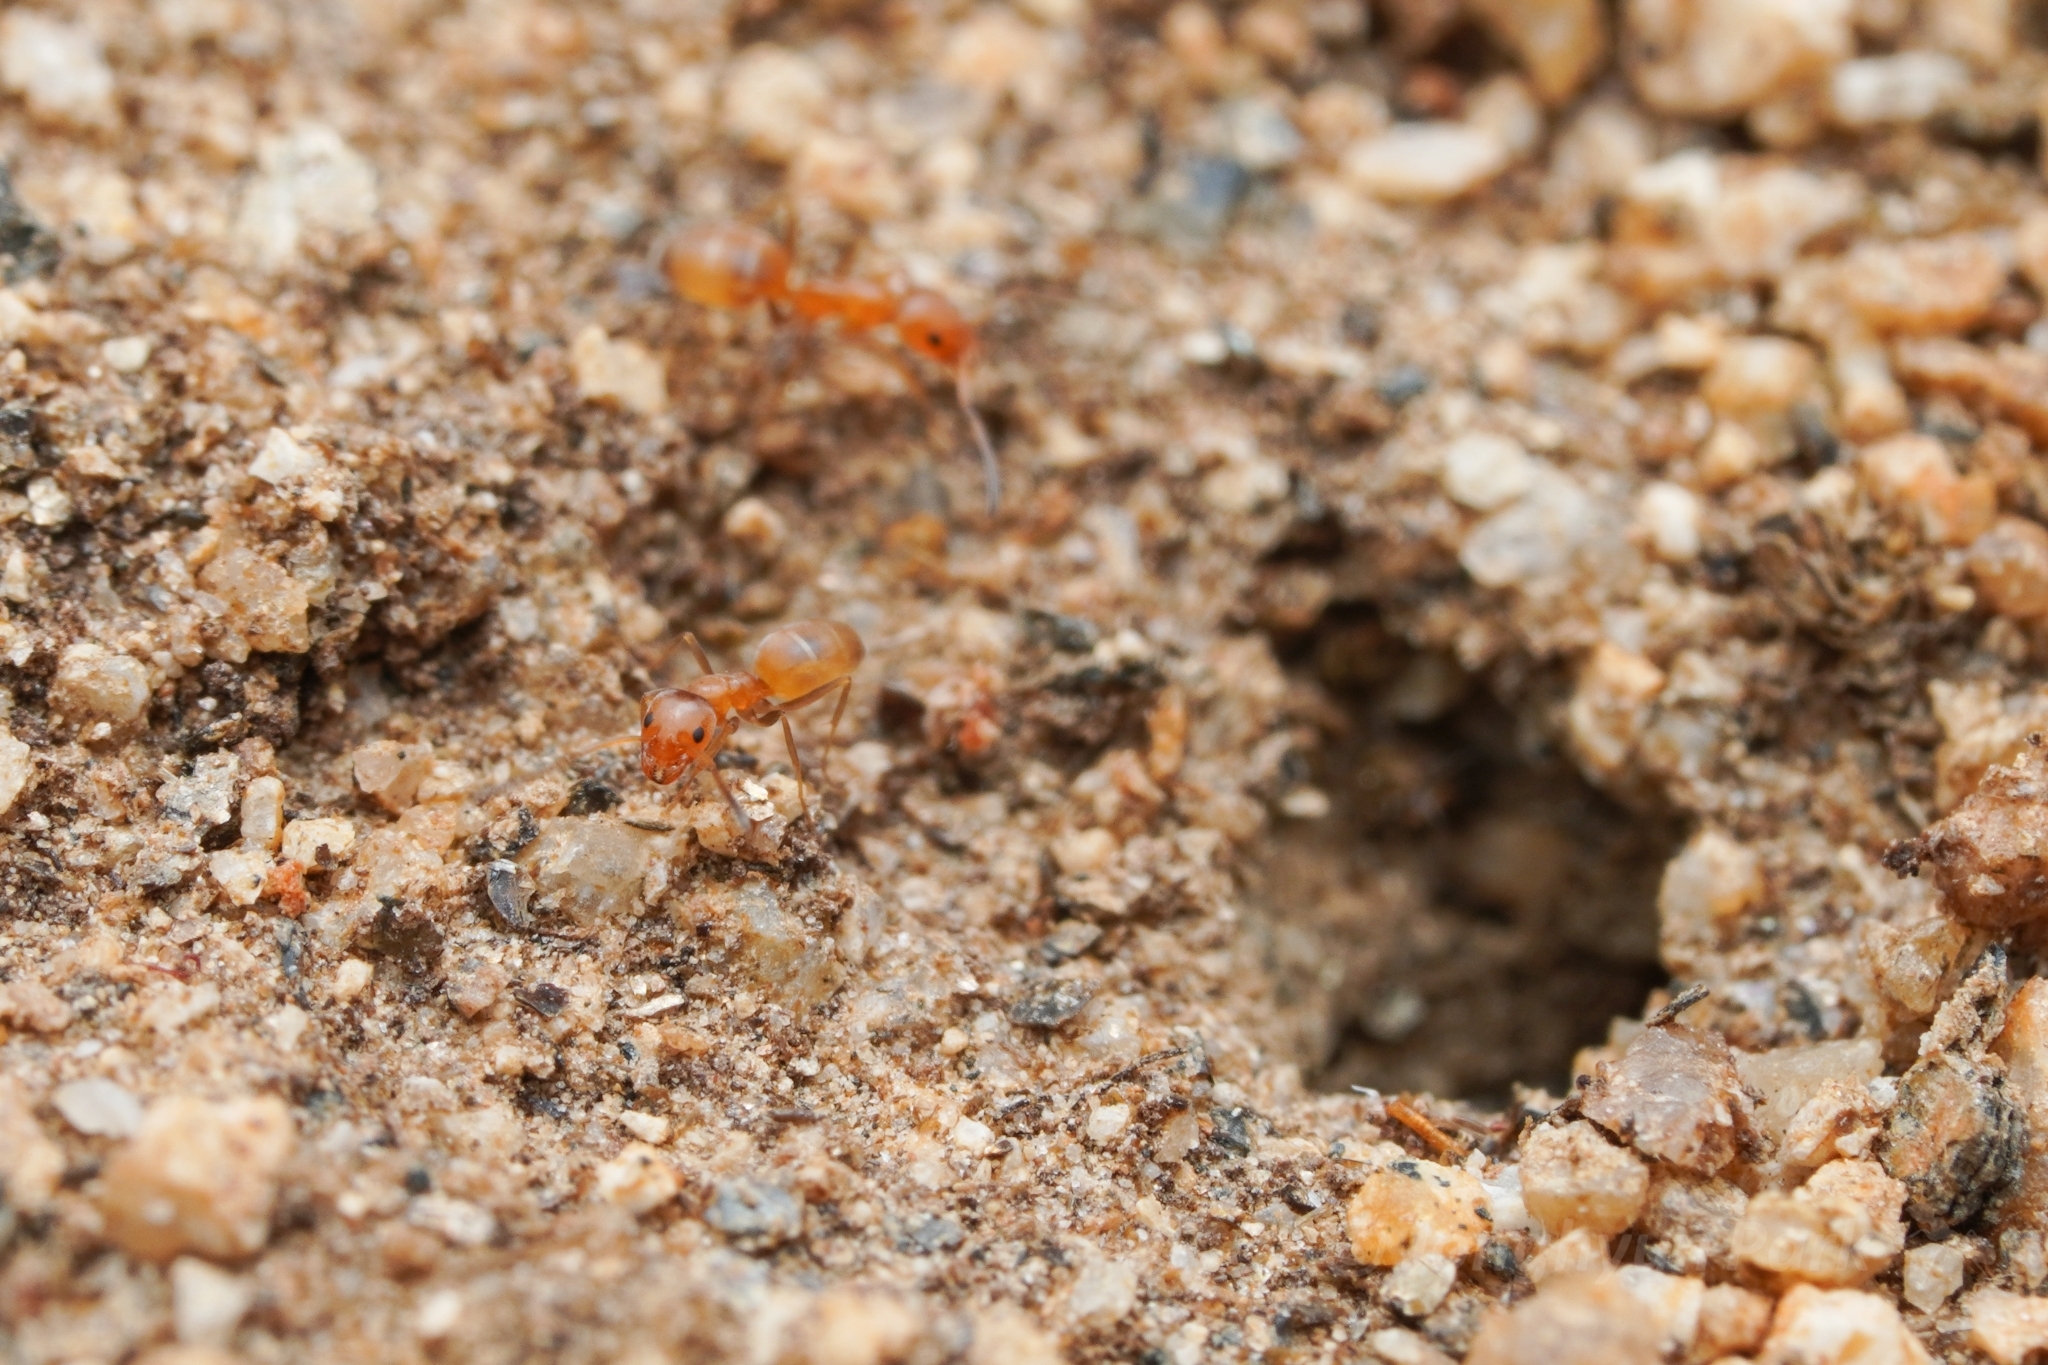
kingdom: Animalia
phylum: Arthropoda
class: Insecta
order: Hymenoptera
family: Formicidae
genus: Forelius
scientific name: Forelius pruinosus
